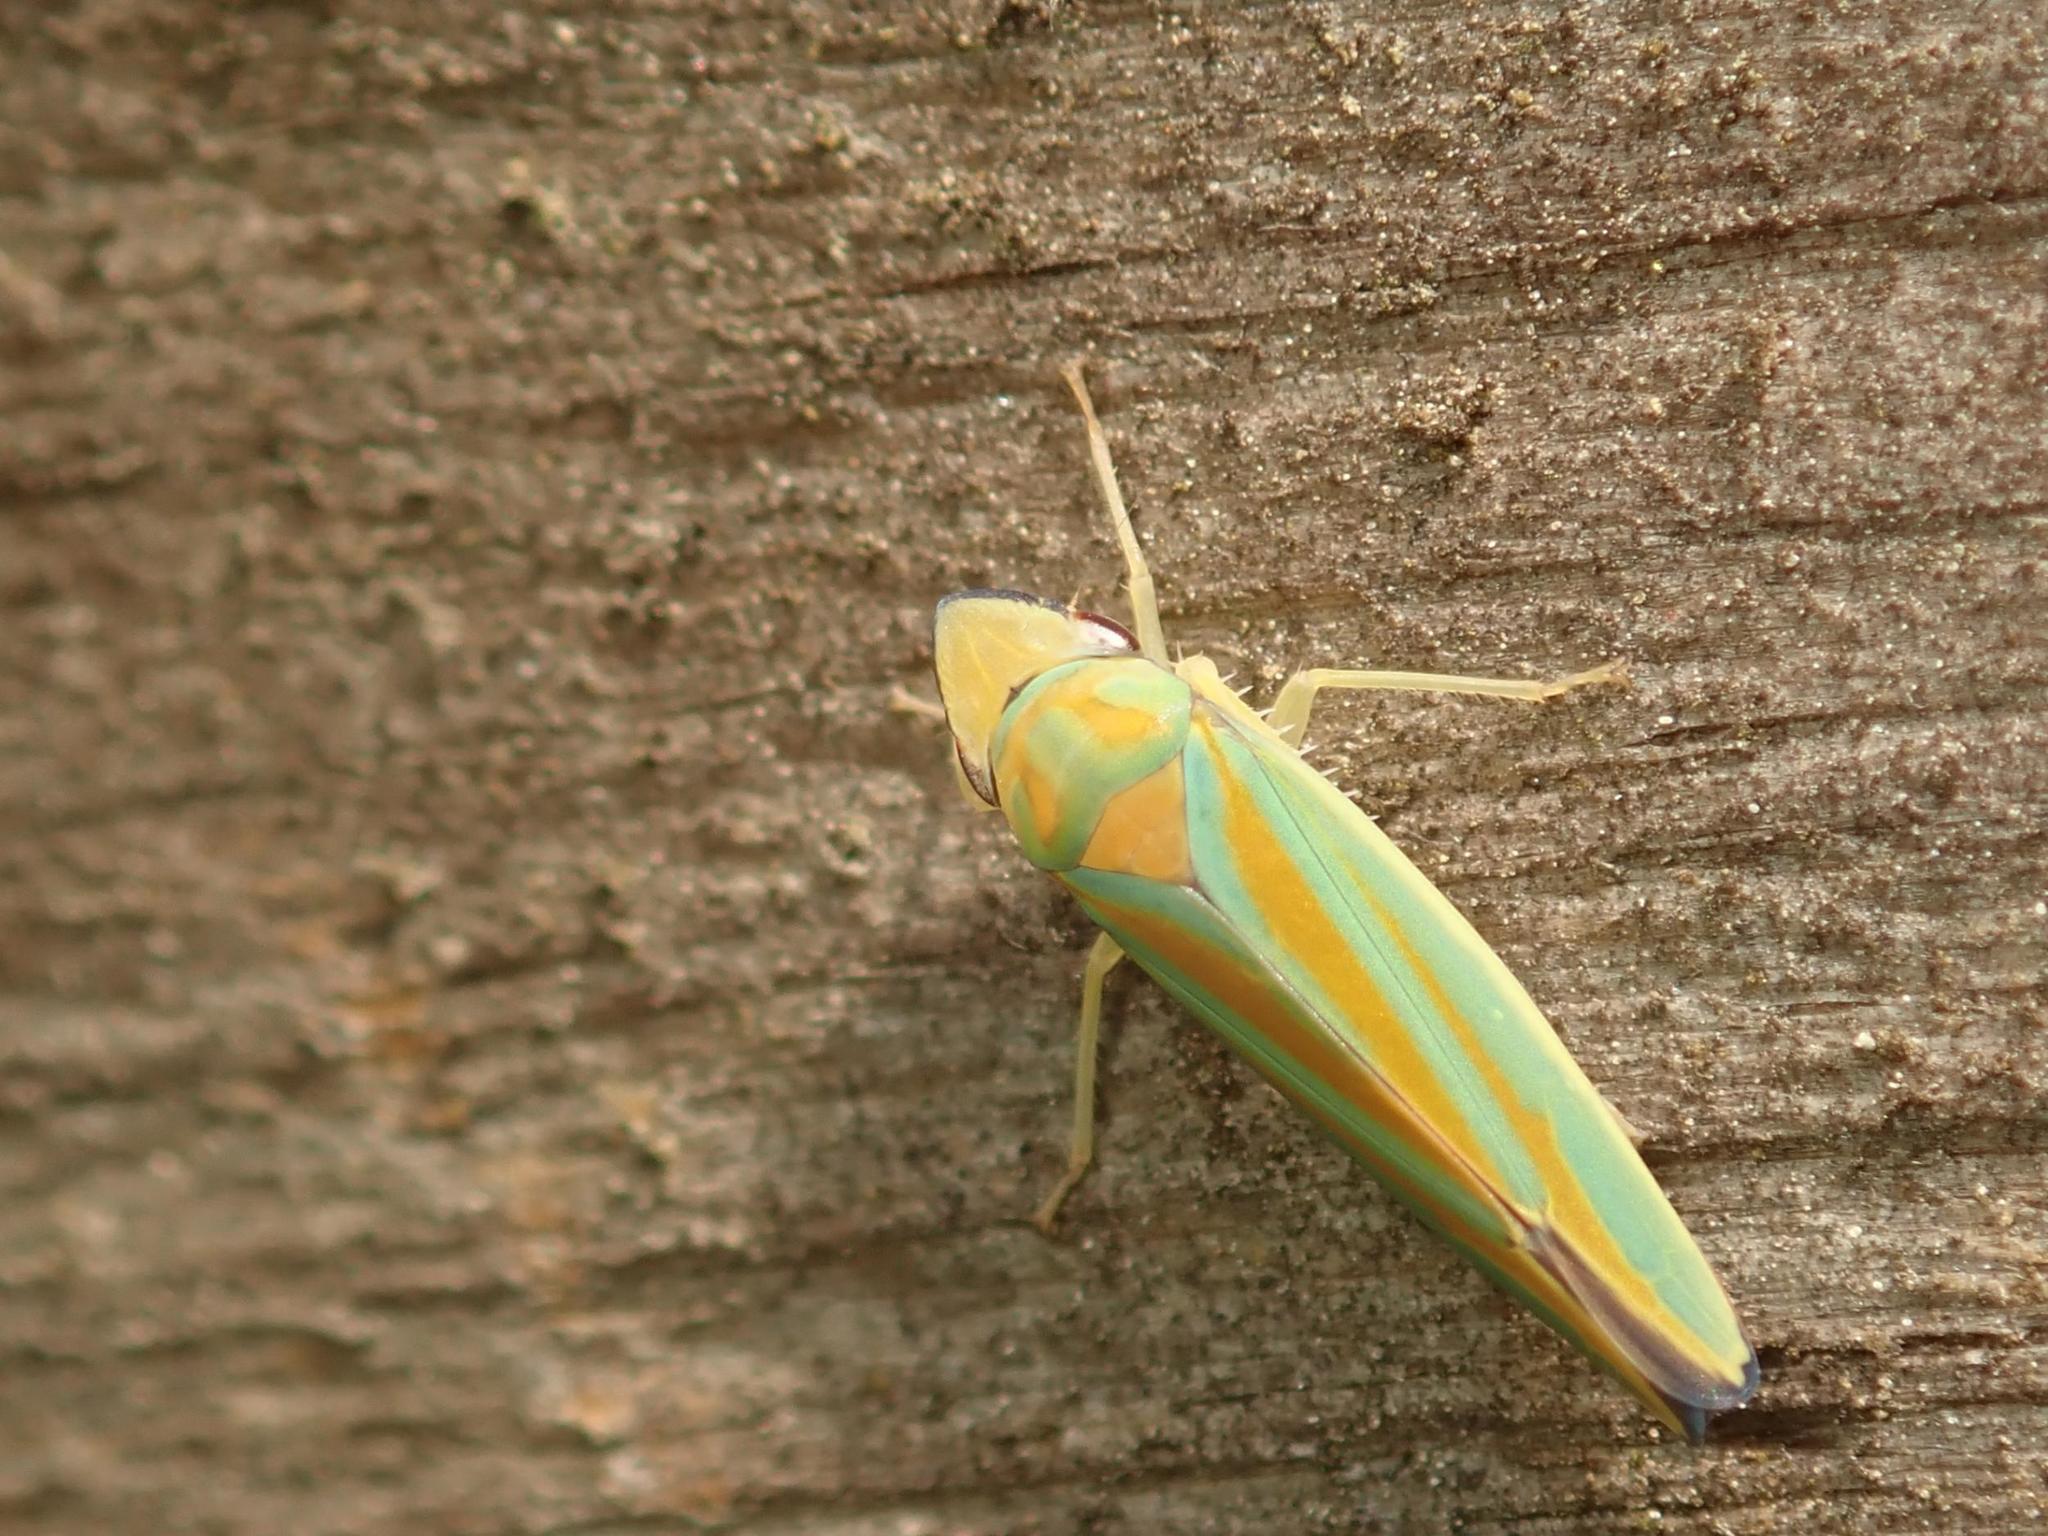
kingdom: Animalia
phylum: Arthropoda
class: Insecta
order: Hemiptera
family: Cicadellidae
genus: Graphocephala
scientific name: Graphocephala fennahi
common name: Rhododendron leafhopper
